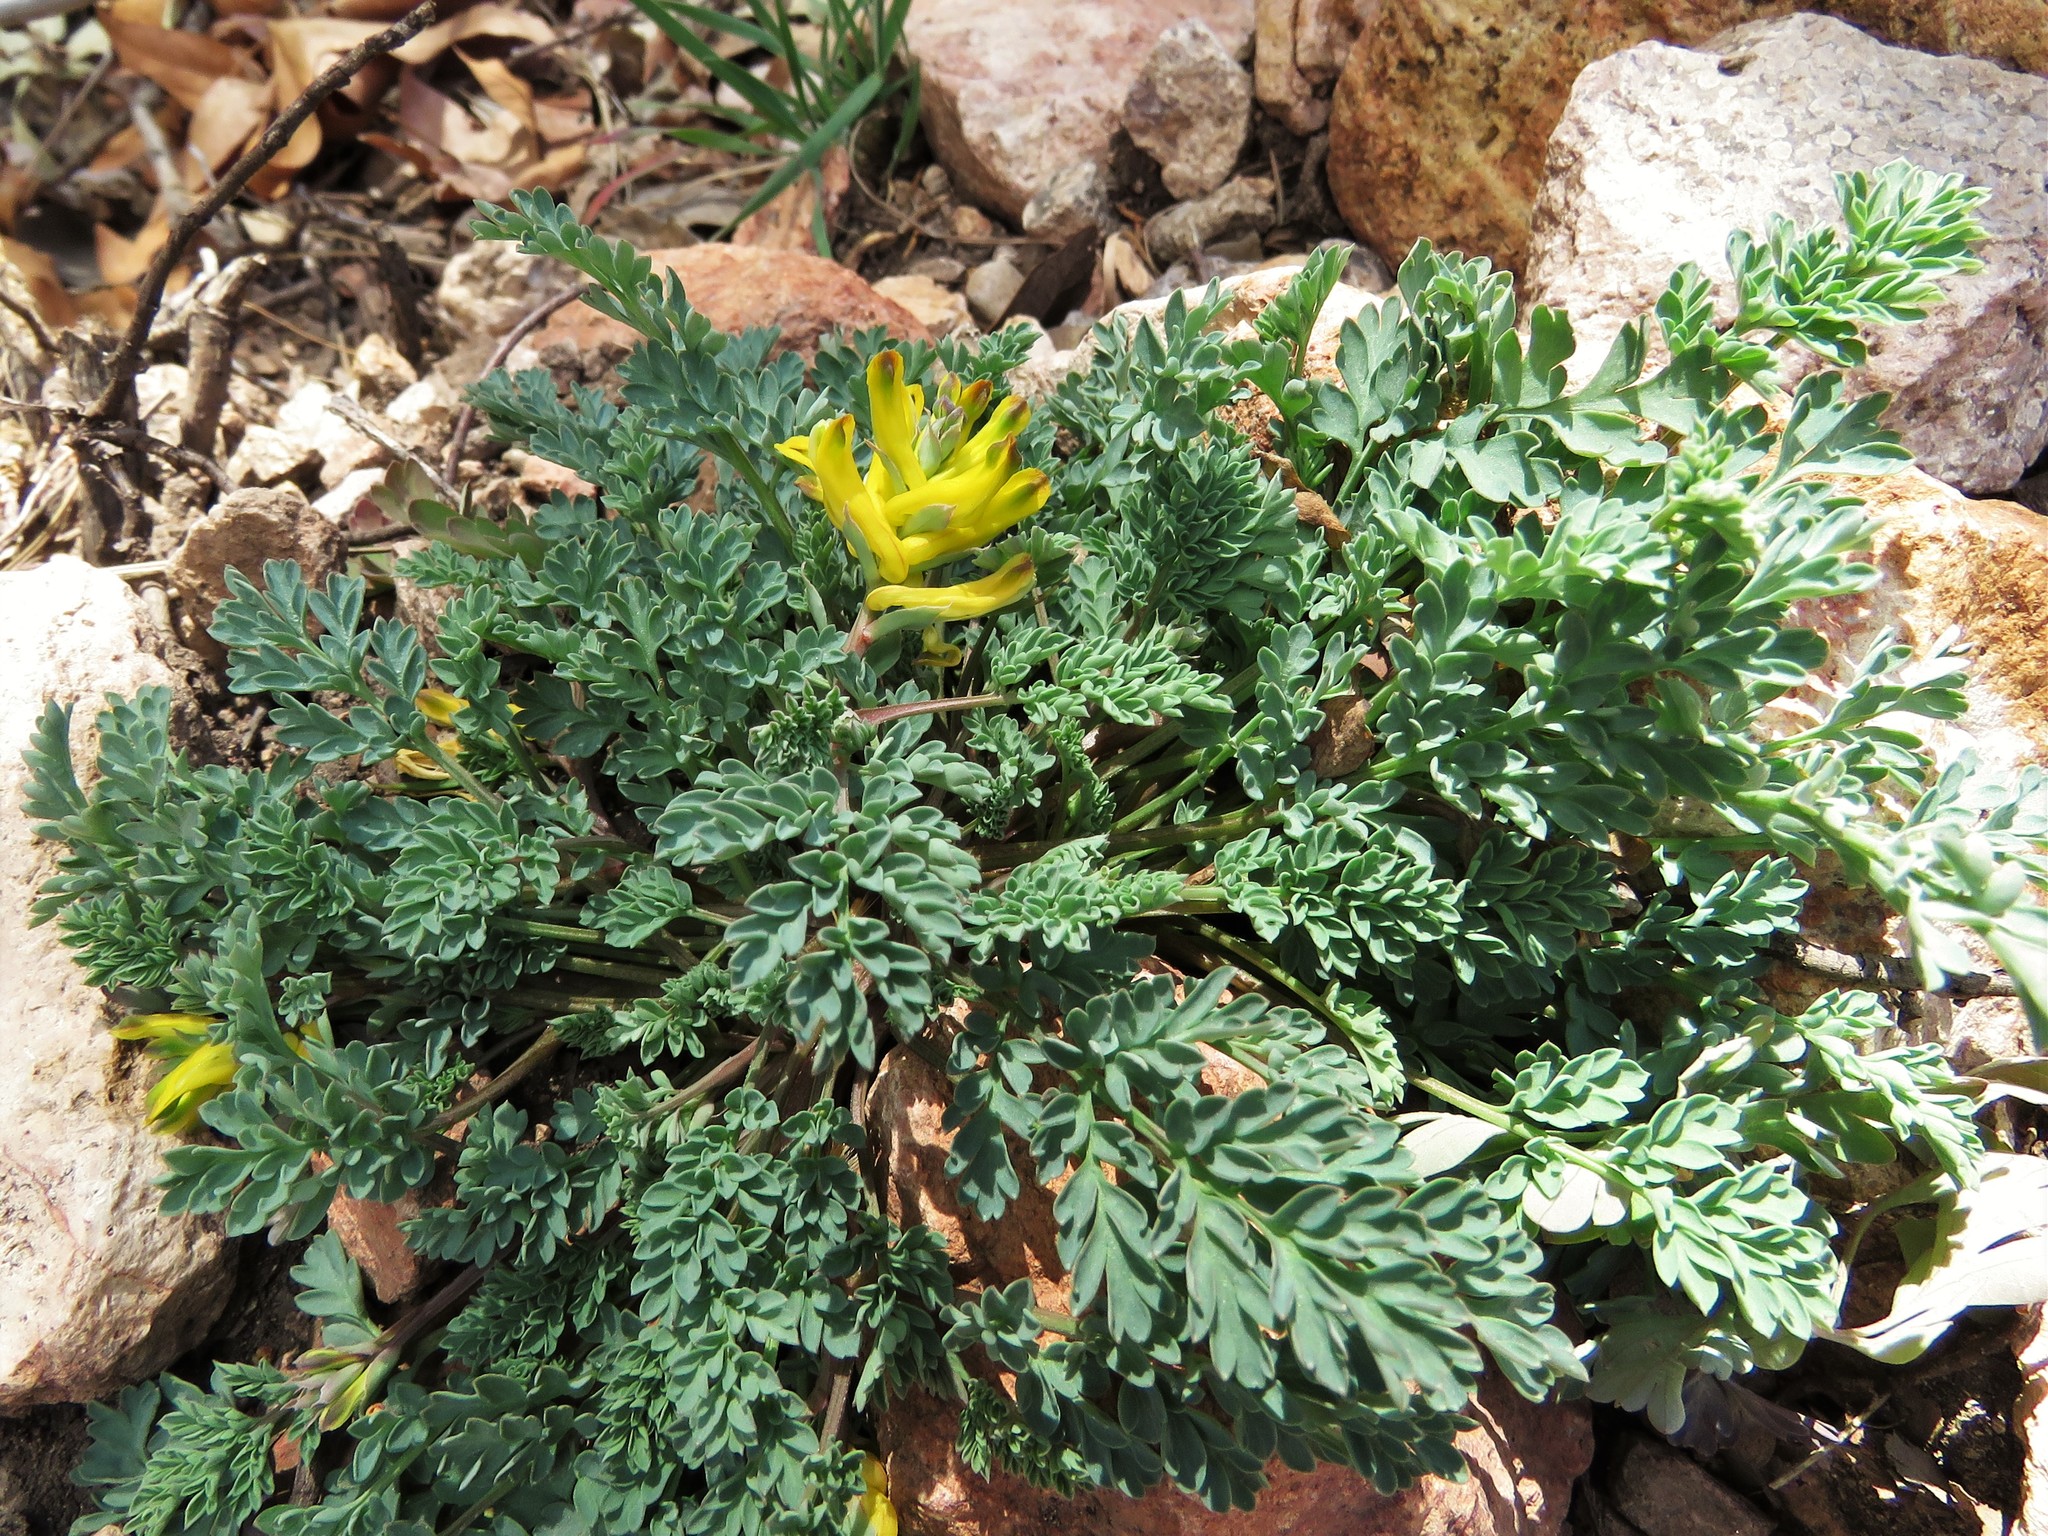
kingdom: Plantae
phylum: Tracheophyta
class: Magnoliopsida
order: Ranunculales
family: Papaveraceae
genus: Corydalis
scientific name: Corydalis aurea
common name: Golden corydalis
